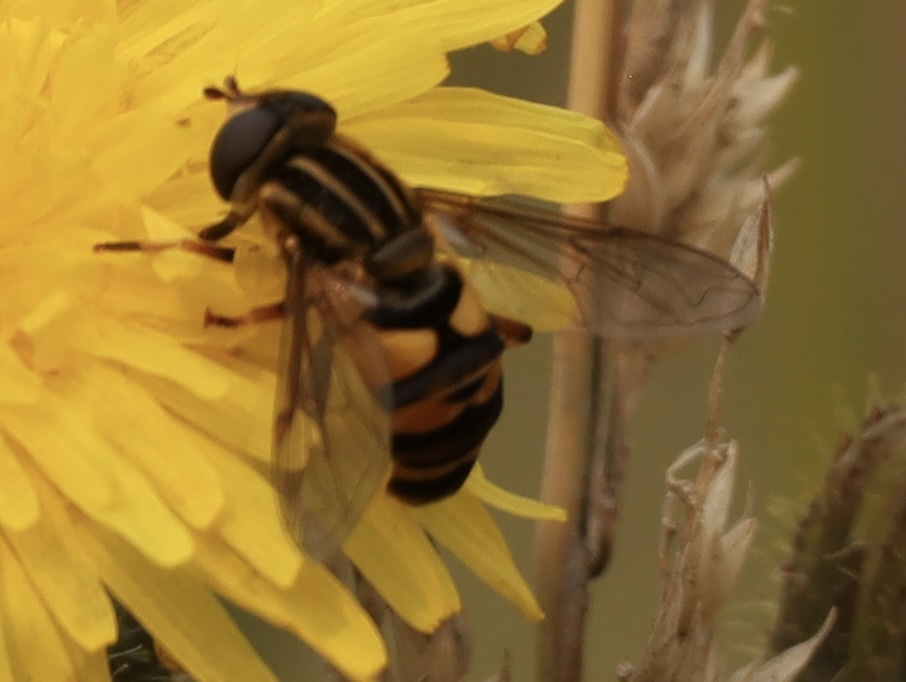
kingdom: Animalia
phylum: Arthropoda
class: Insecta
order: Diptera
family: Syrphidae
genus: Helophilus
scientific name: Helophilus fasciatus
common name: Narrow-headed marsh fly
